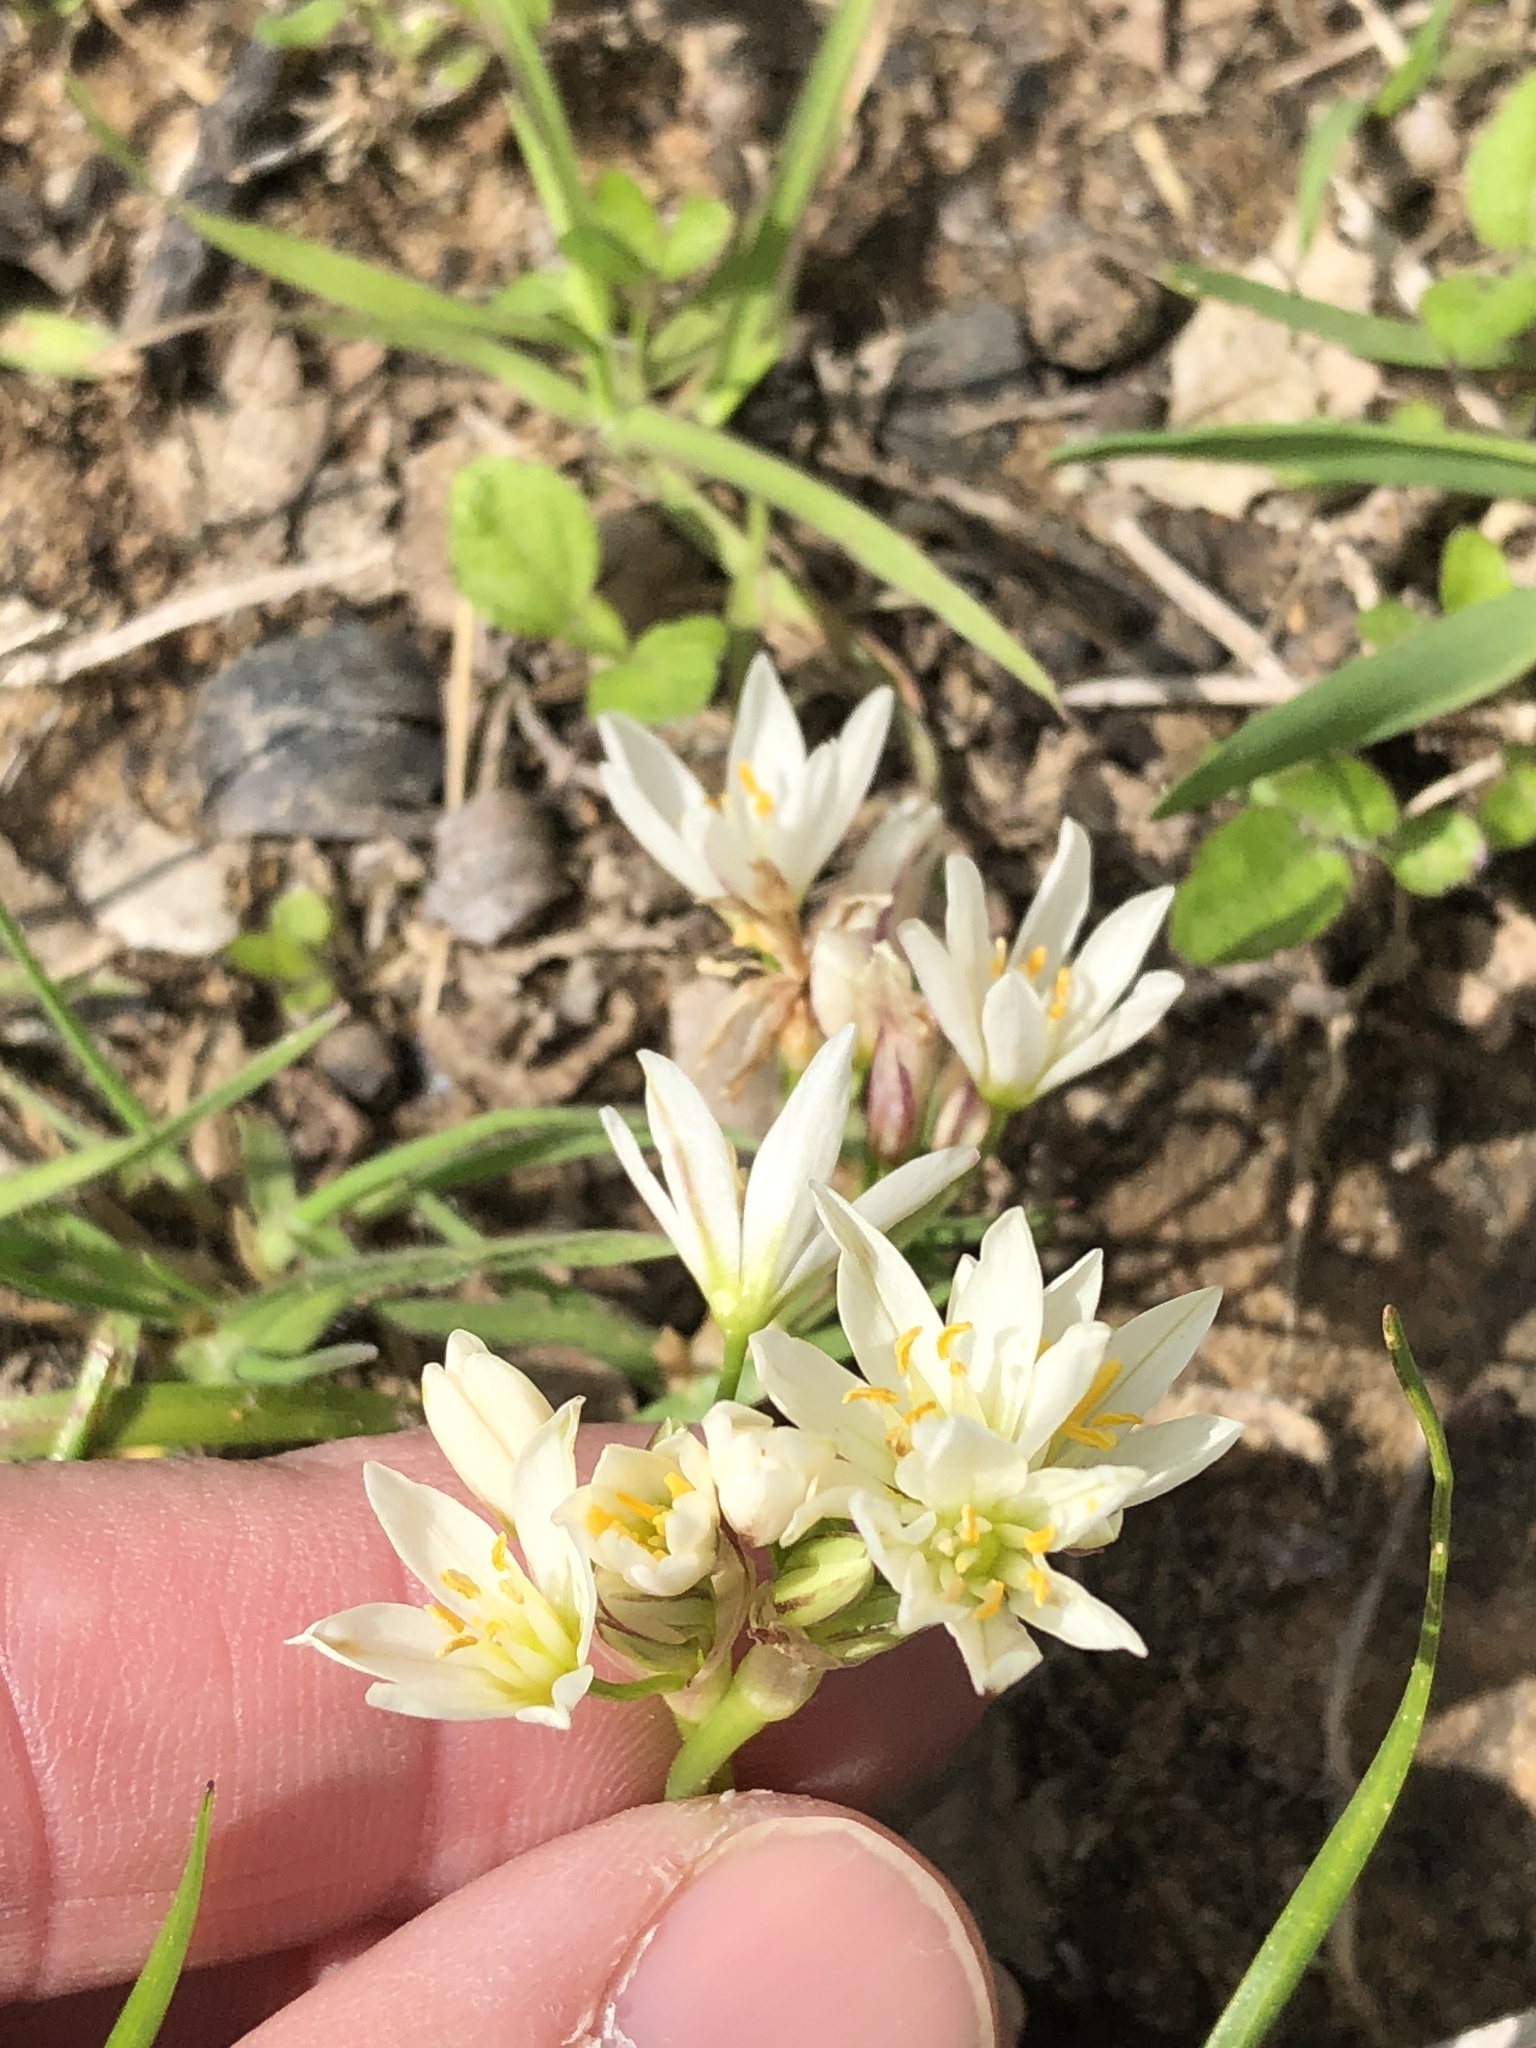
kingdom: Plantae
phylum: Tracheophyta
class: Liliopsida
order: Asparagales
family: Amaryllidaceae
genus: Nothoscordum
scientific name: Nothoscordum bivalve
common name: Crow-poison
